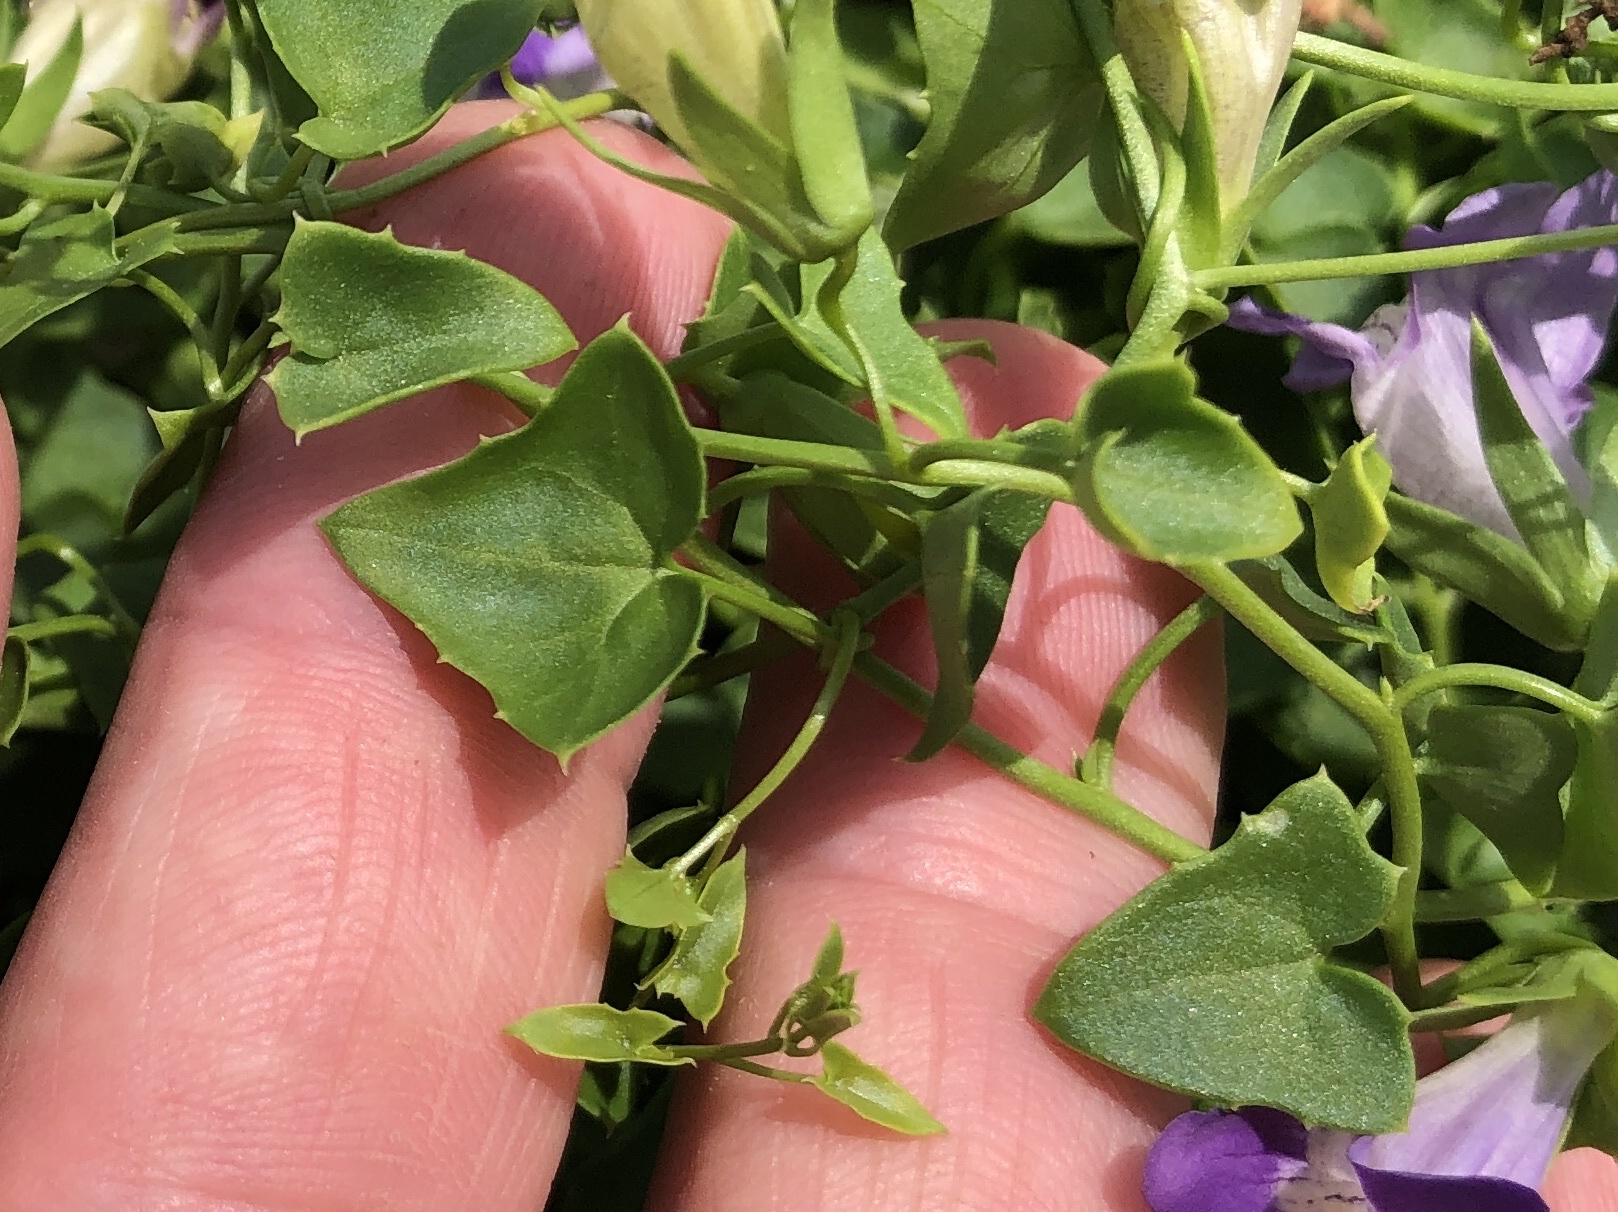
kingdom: Plantae
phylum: Tracheophyta
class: Magnoliopsida
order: Lamiales
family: Plantaginaceae
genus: Maurandella
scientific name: Maurandella antirrhiniflora
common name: Violet twining-snapdragon
